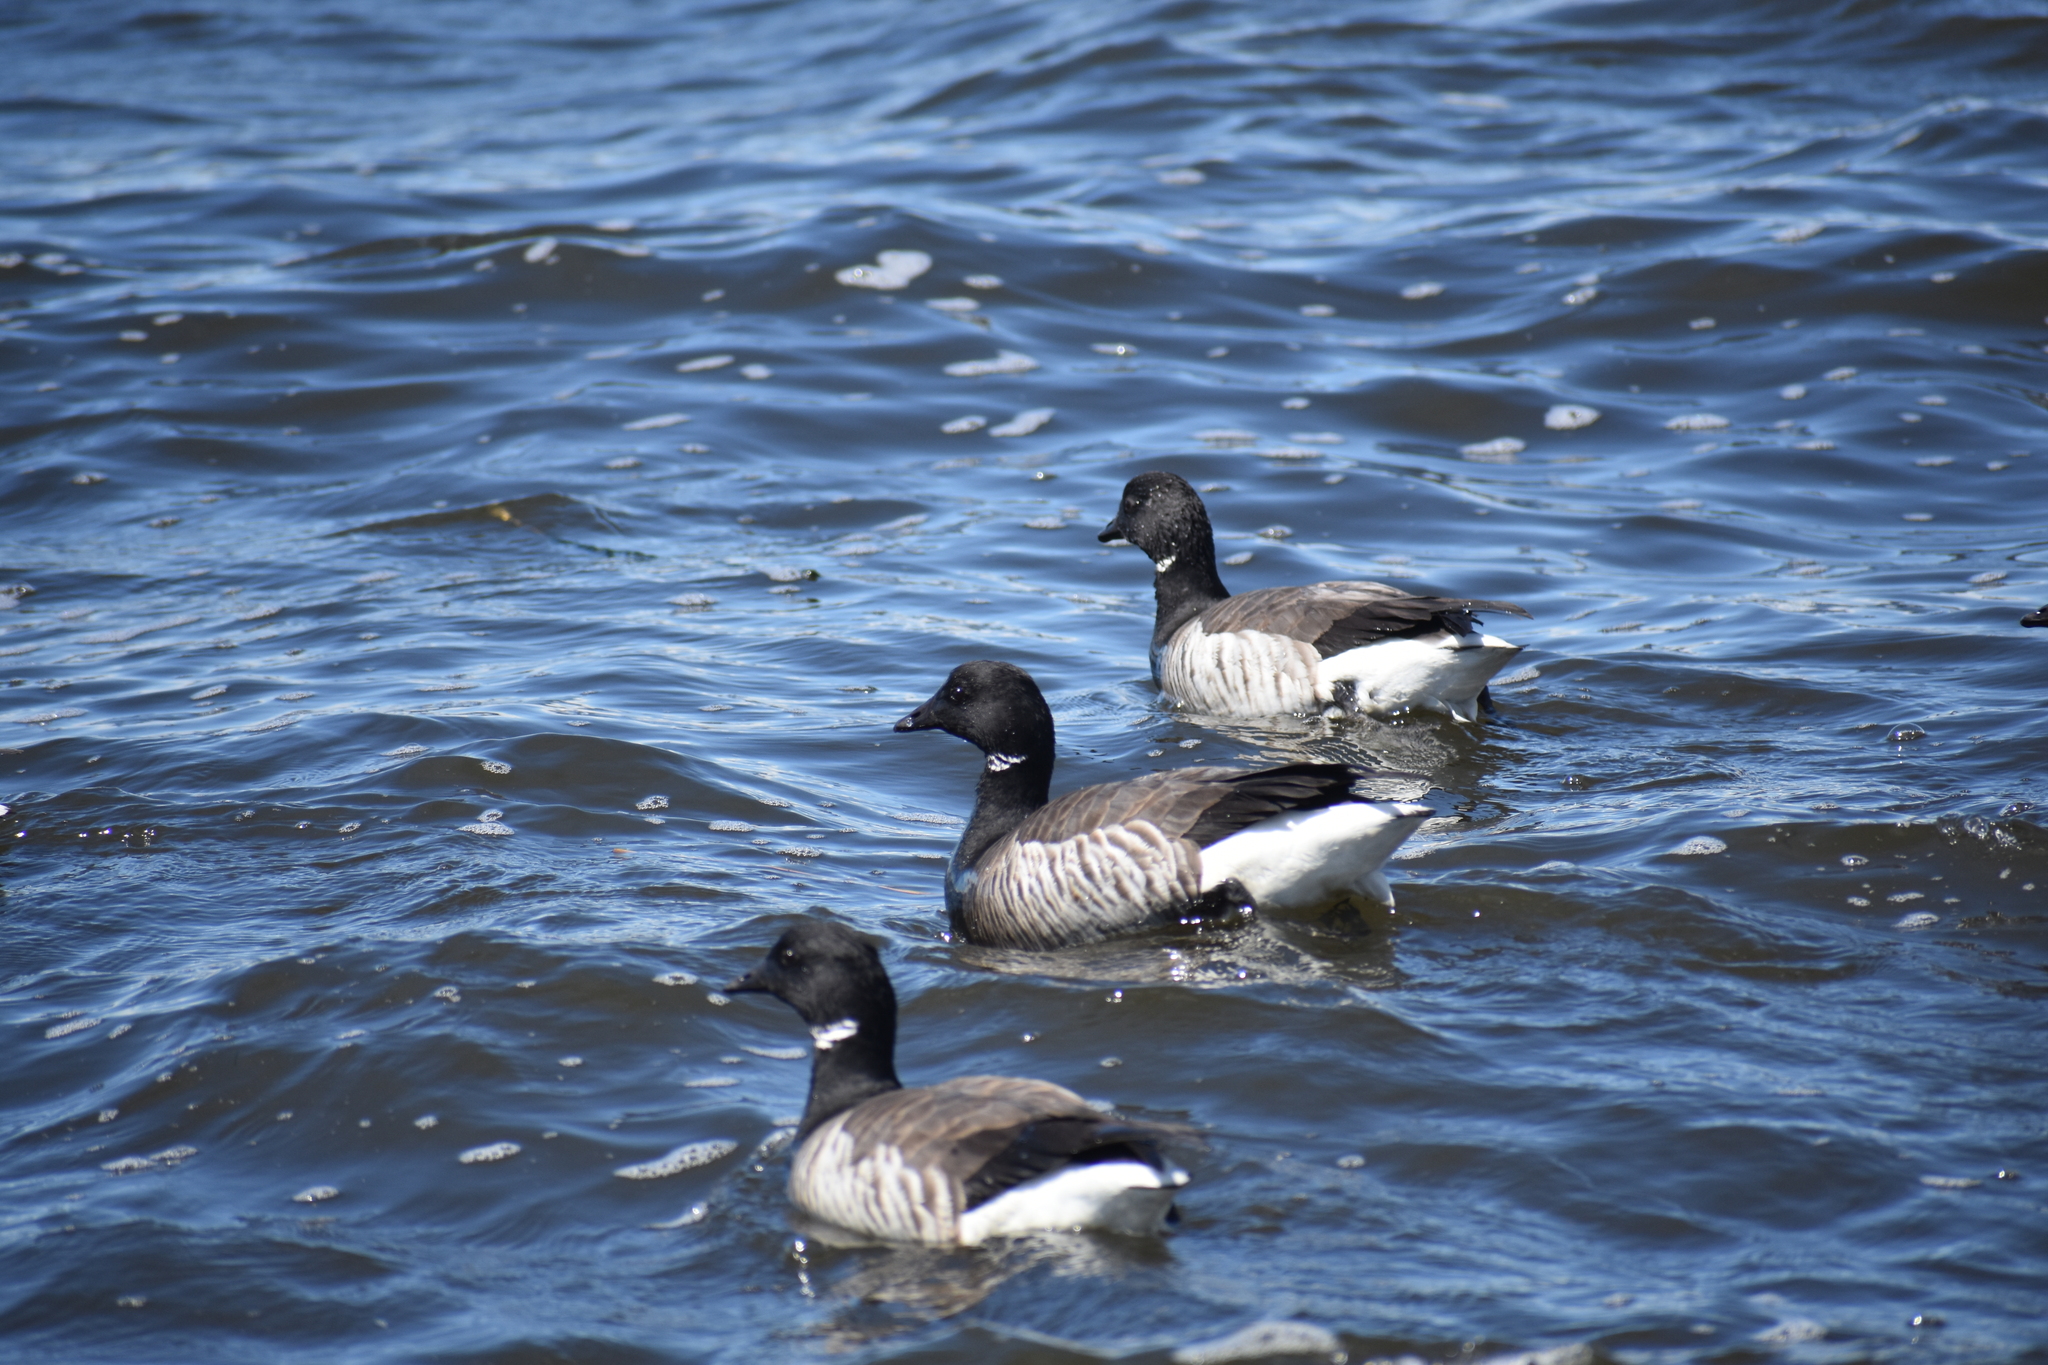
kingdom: Animalia
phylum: Chordata
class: Aves
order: Anseriformes
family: Anatidae
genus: Branta
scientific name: Branta bernicla
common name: Brant goose
